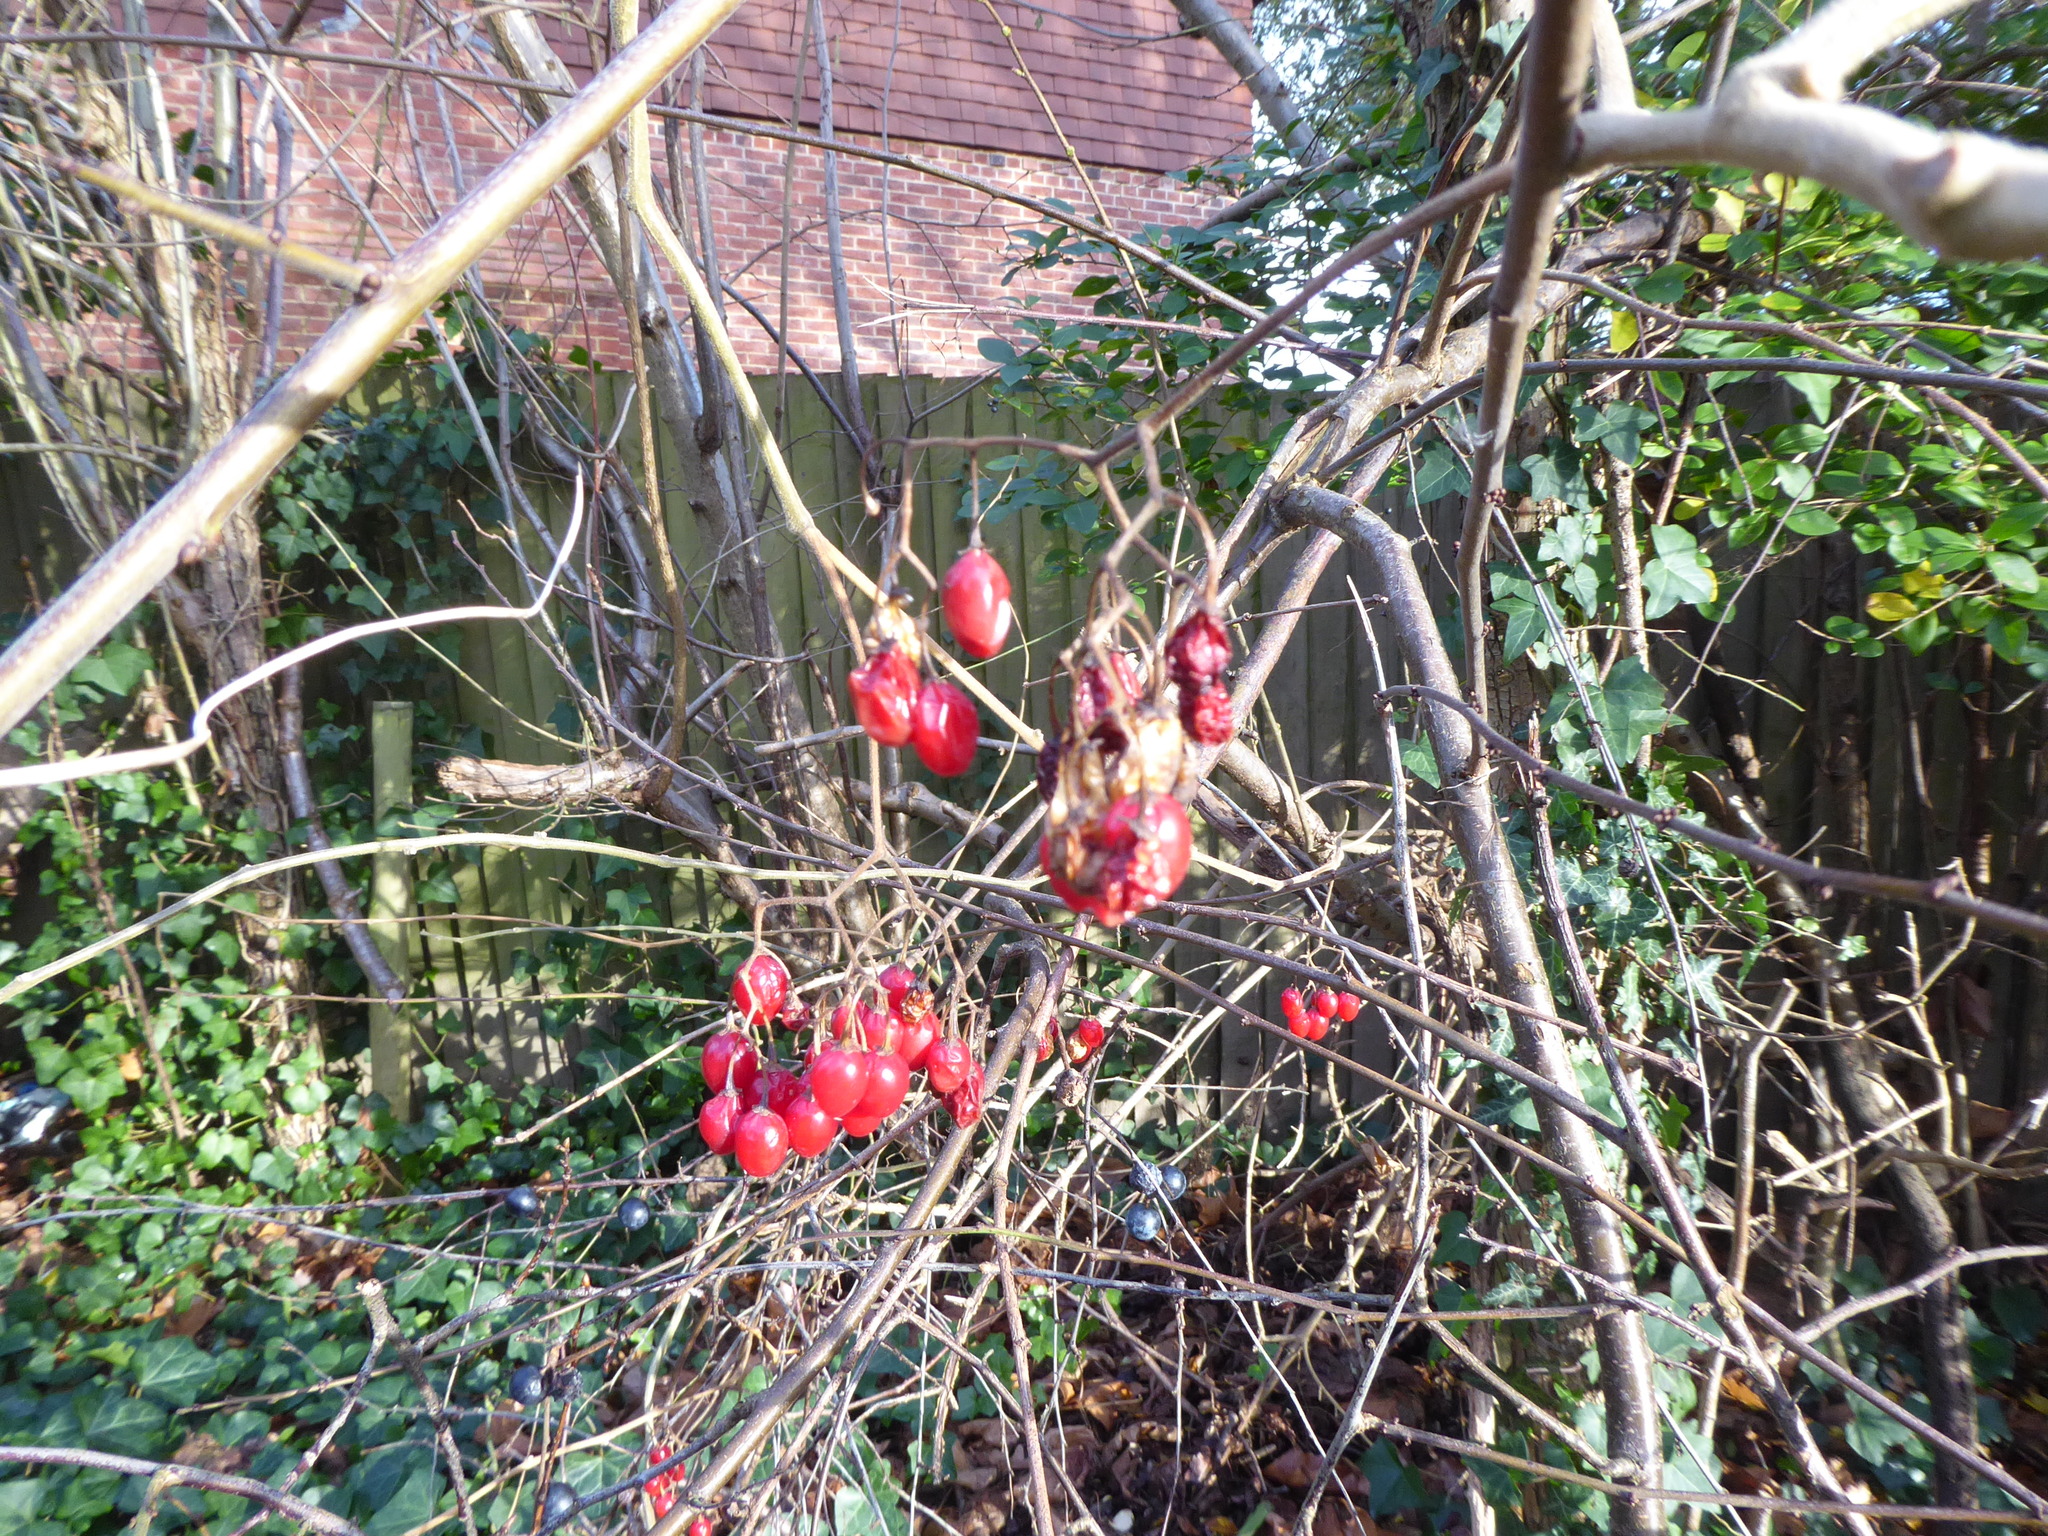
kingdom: Plantae
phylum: Tracheophyta
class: Magnoliopsida
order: Solanales
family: Solanaceae
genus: Solanum
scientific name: Solanum dulcamara
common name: Climbing nightshade
